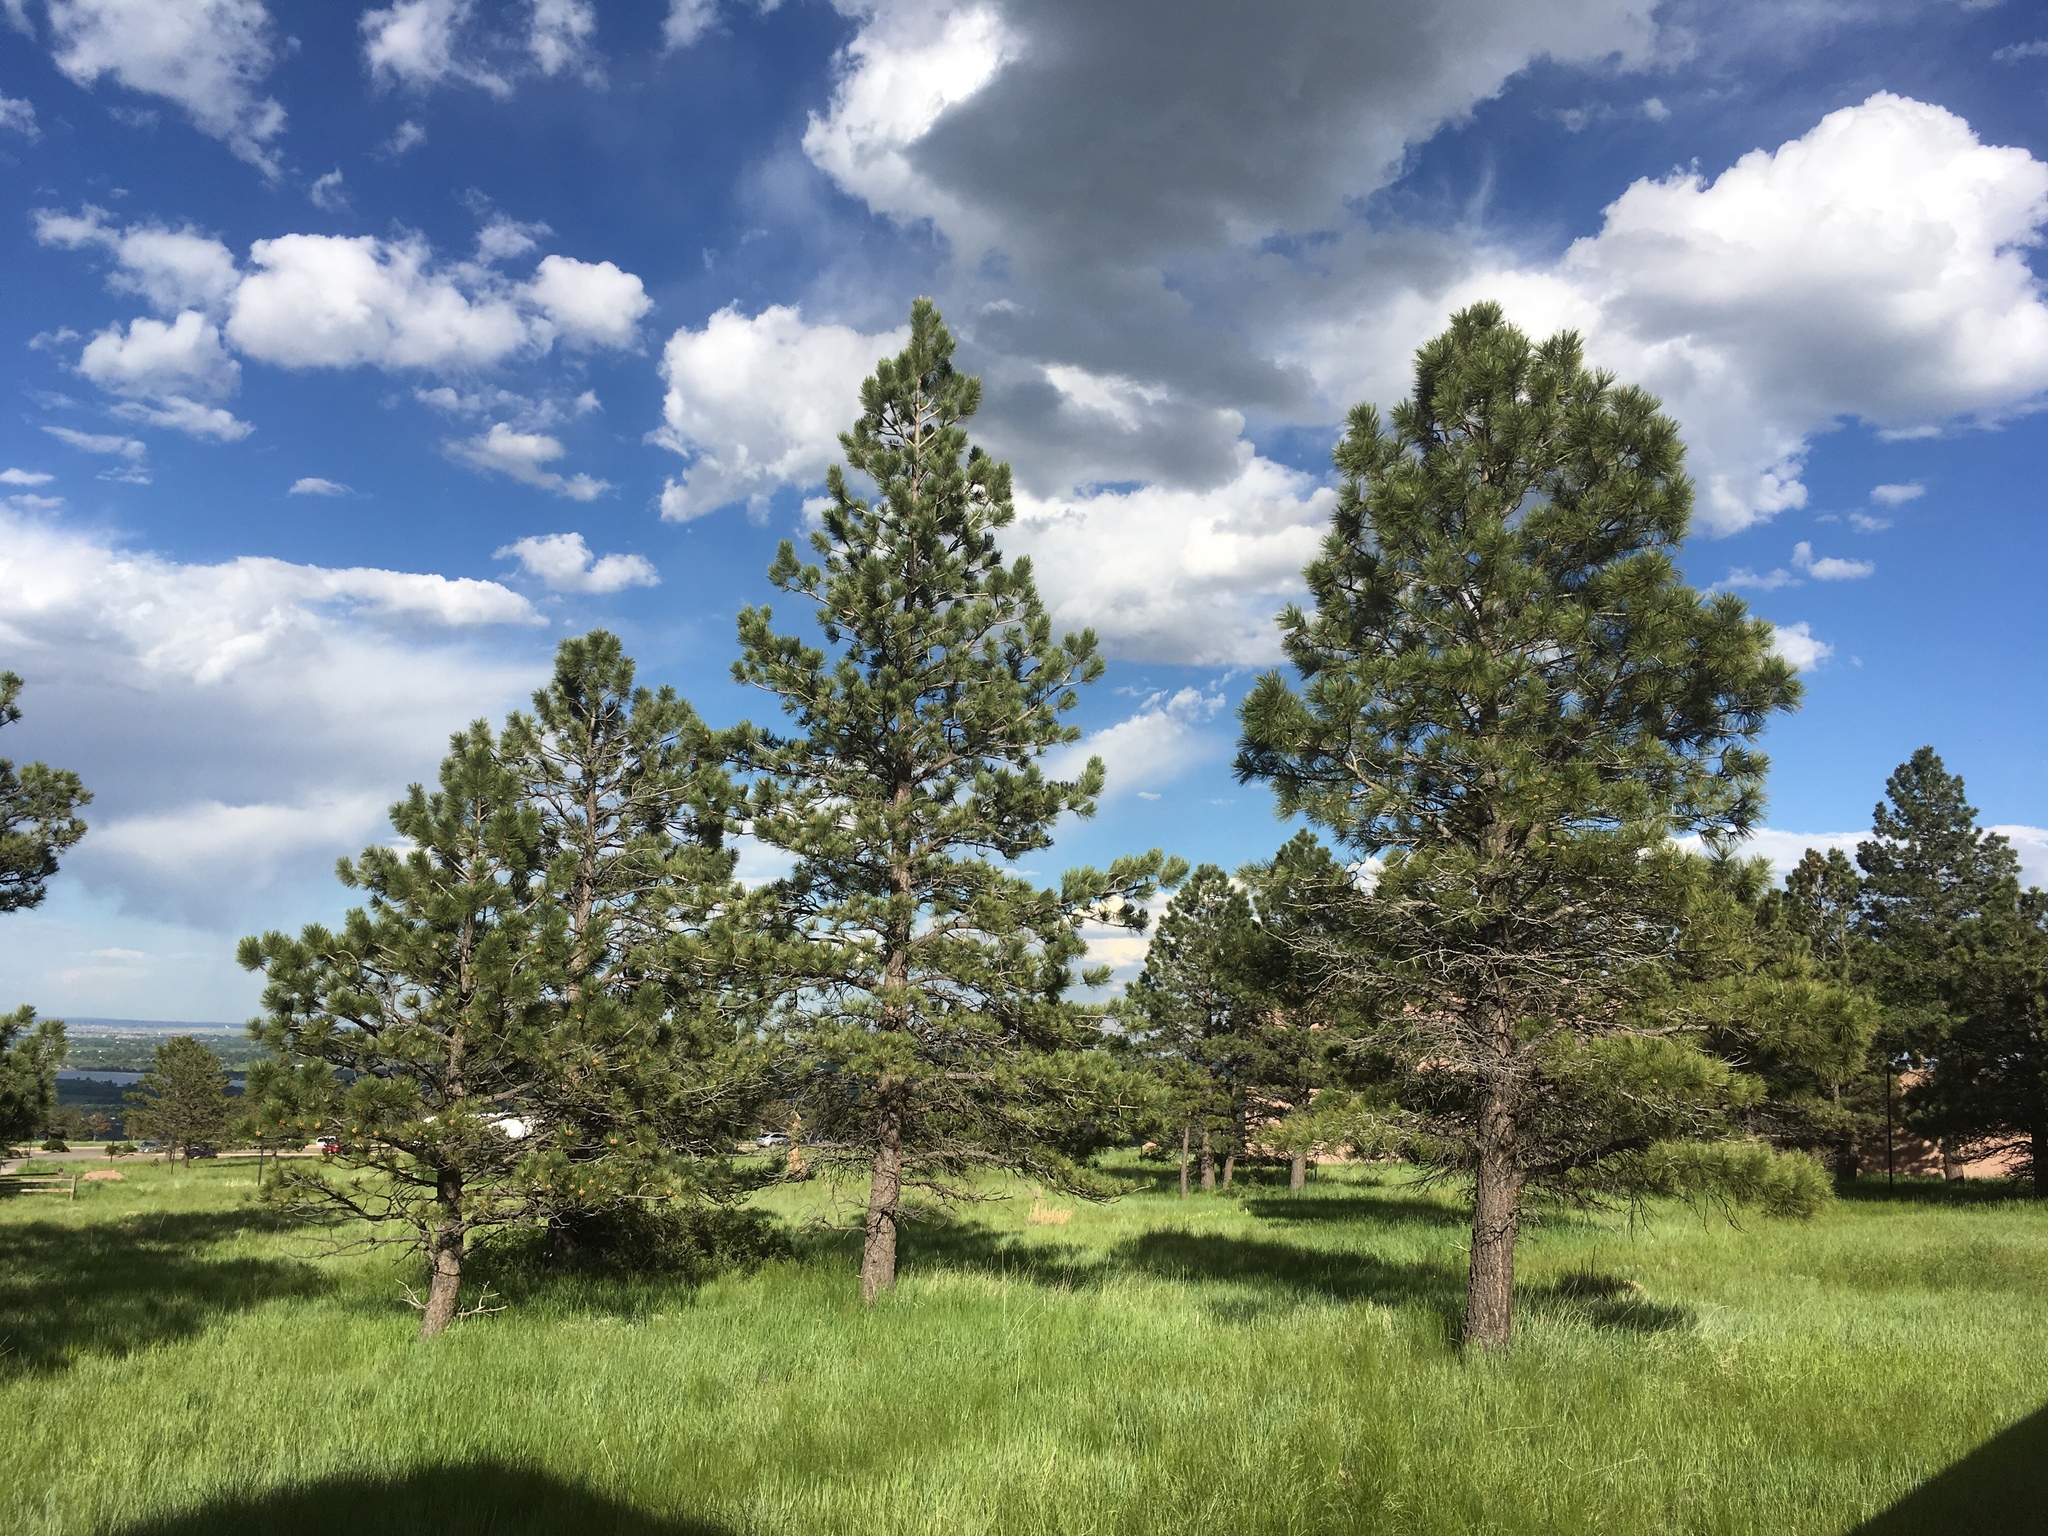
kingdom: Plantae
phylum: Tracheophyta
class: Pinopsida
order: Pinales
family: Pinaceae
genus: Pinus
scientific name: Pinus ponderosa
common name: Western yellow-pine
